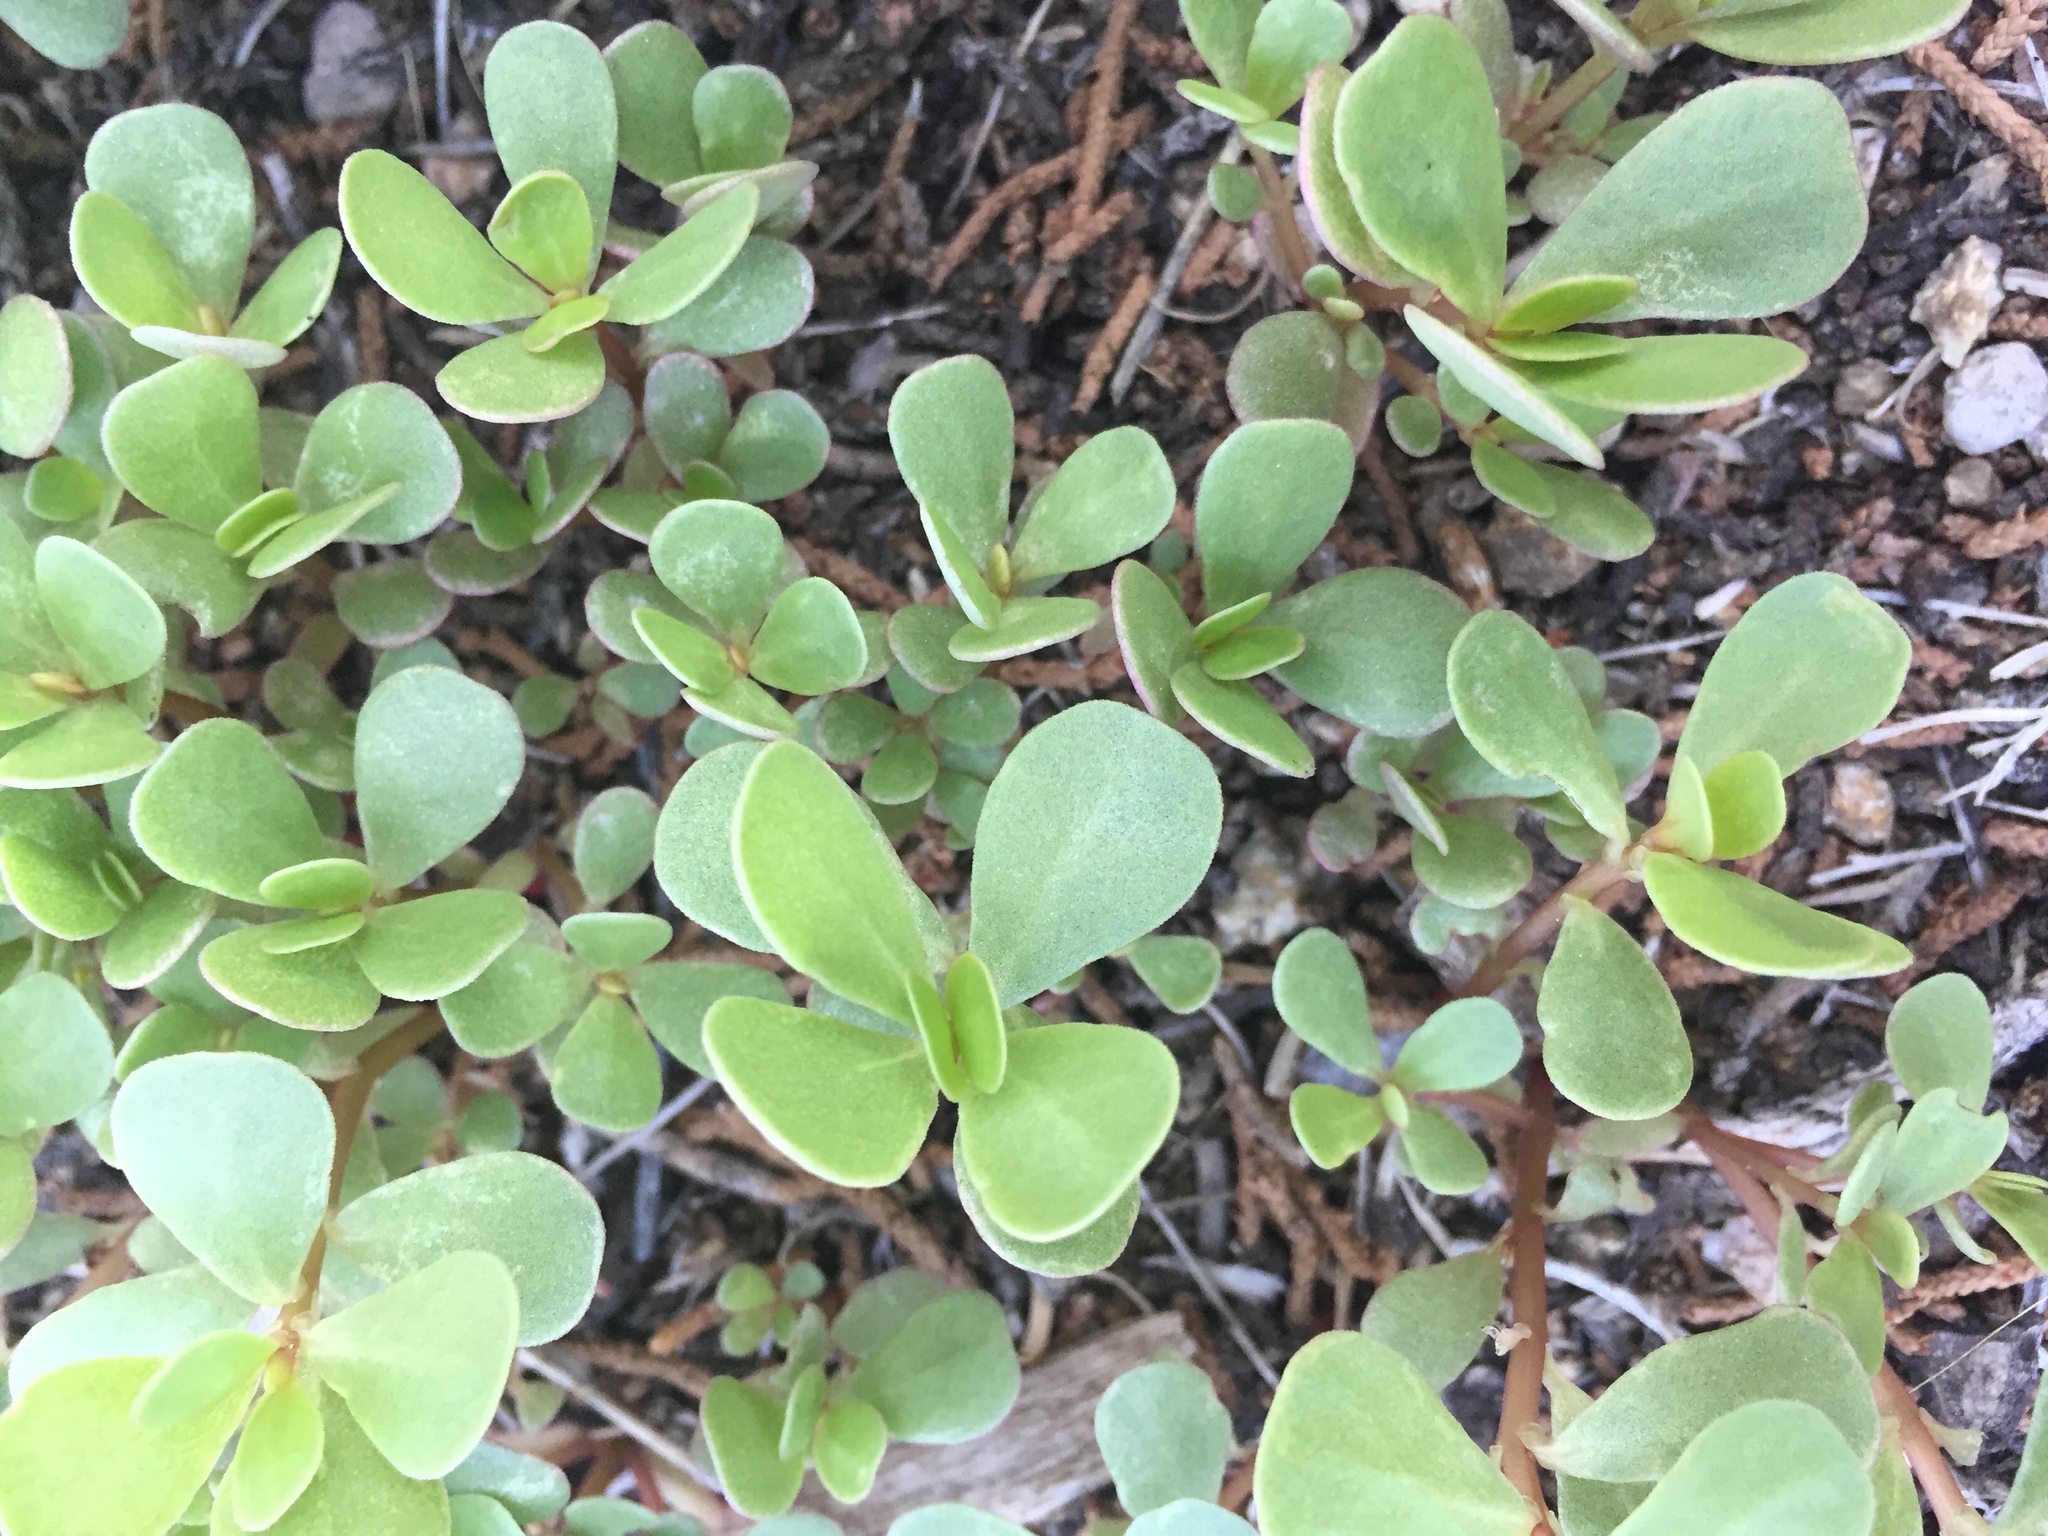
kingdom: Plantae
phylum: Tracheophyta
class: Magnoliopsida
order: Caryophyllales
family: Portulacaceae
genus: Portulaca
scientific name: Portulaca oleracea
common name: Common purslane
